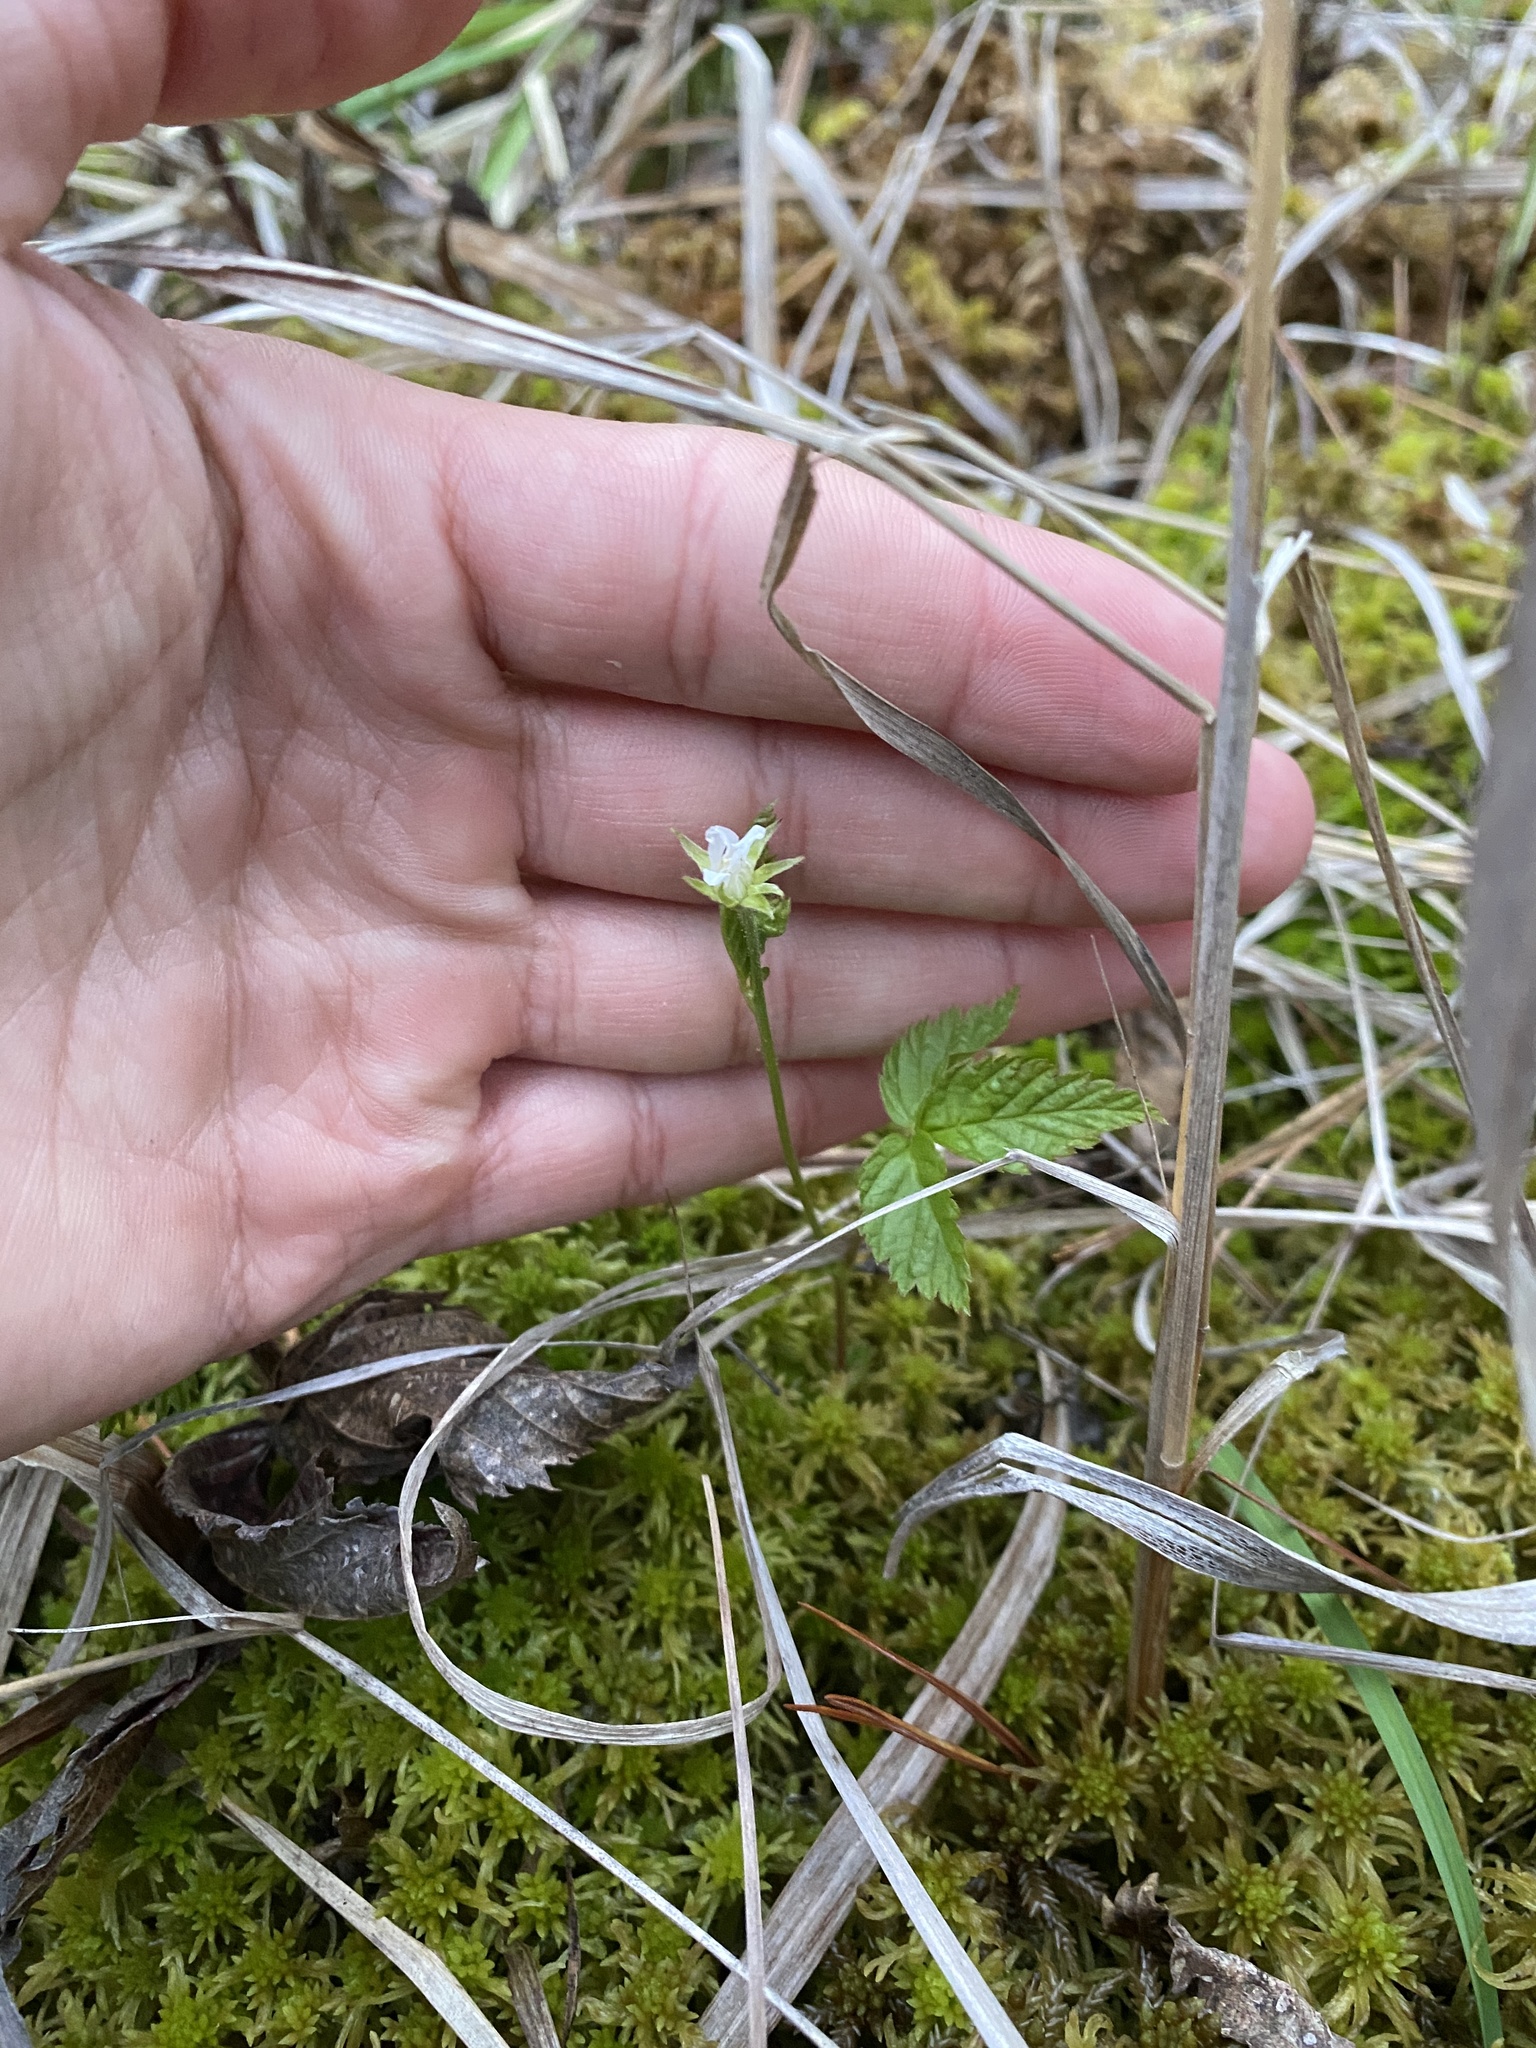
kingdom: Plantae
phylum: Tracheophyta
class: Magnoliopsida
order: Rosales
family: Rosaceae
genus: Rubus
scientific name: Rubus pubescens
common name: Dwarf raspberry
